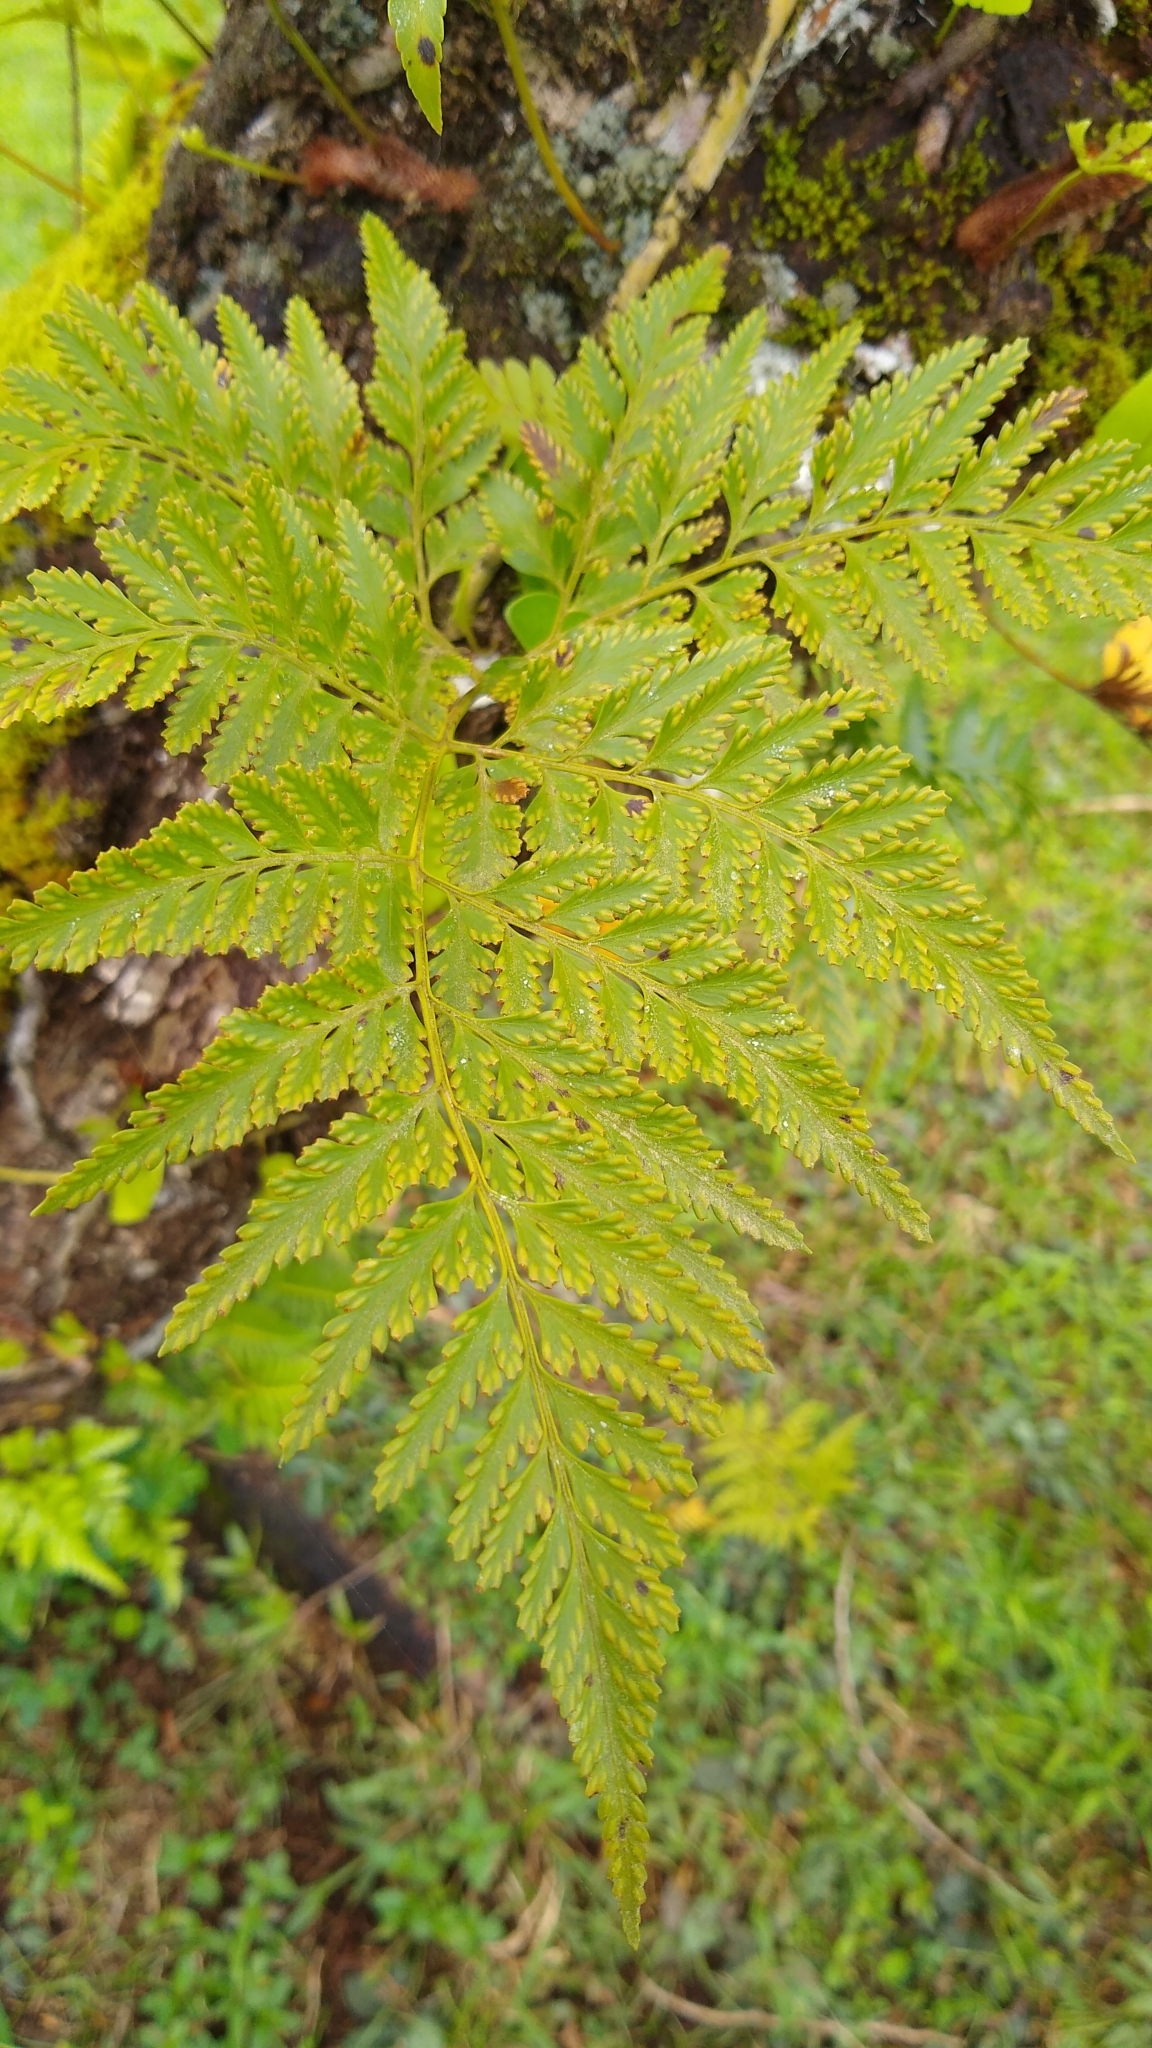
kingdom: Plantae
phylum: Tracheophyta
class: Polypodiopsida
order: Polypodiales
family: Davalliaceae
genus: Davallia
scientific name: Davallia solida
